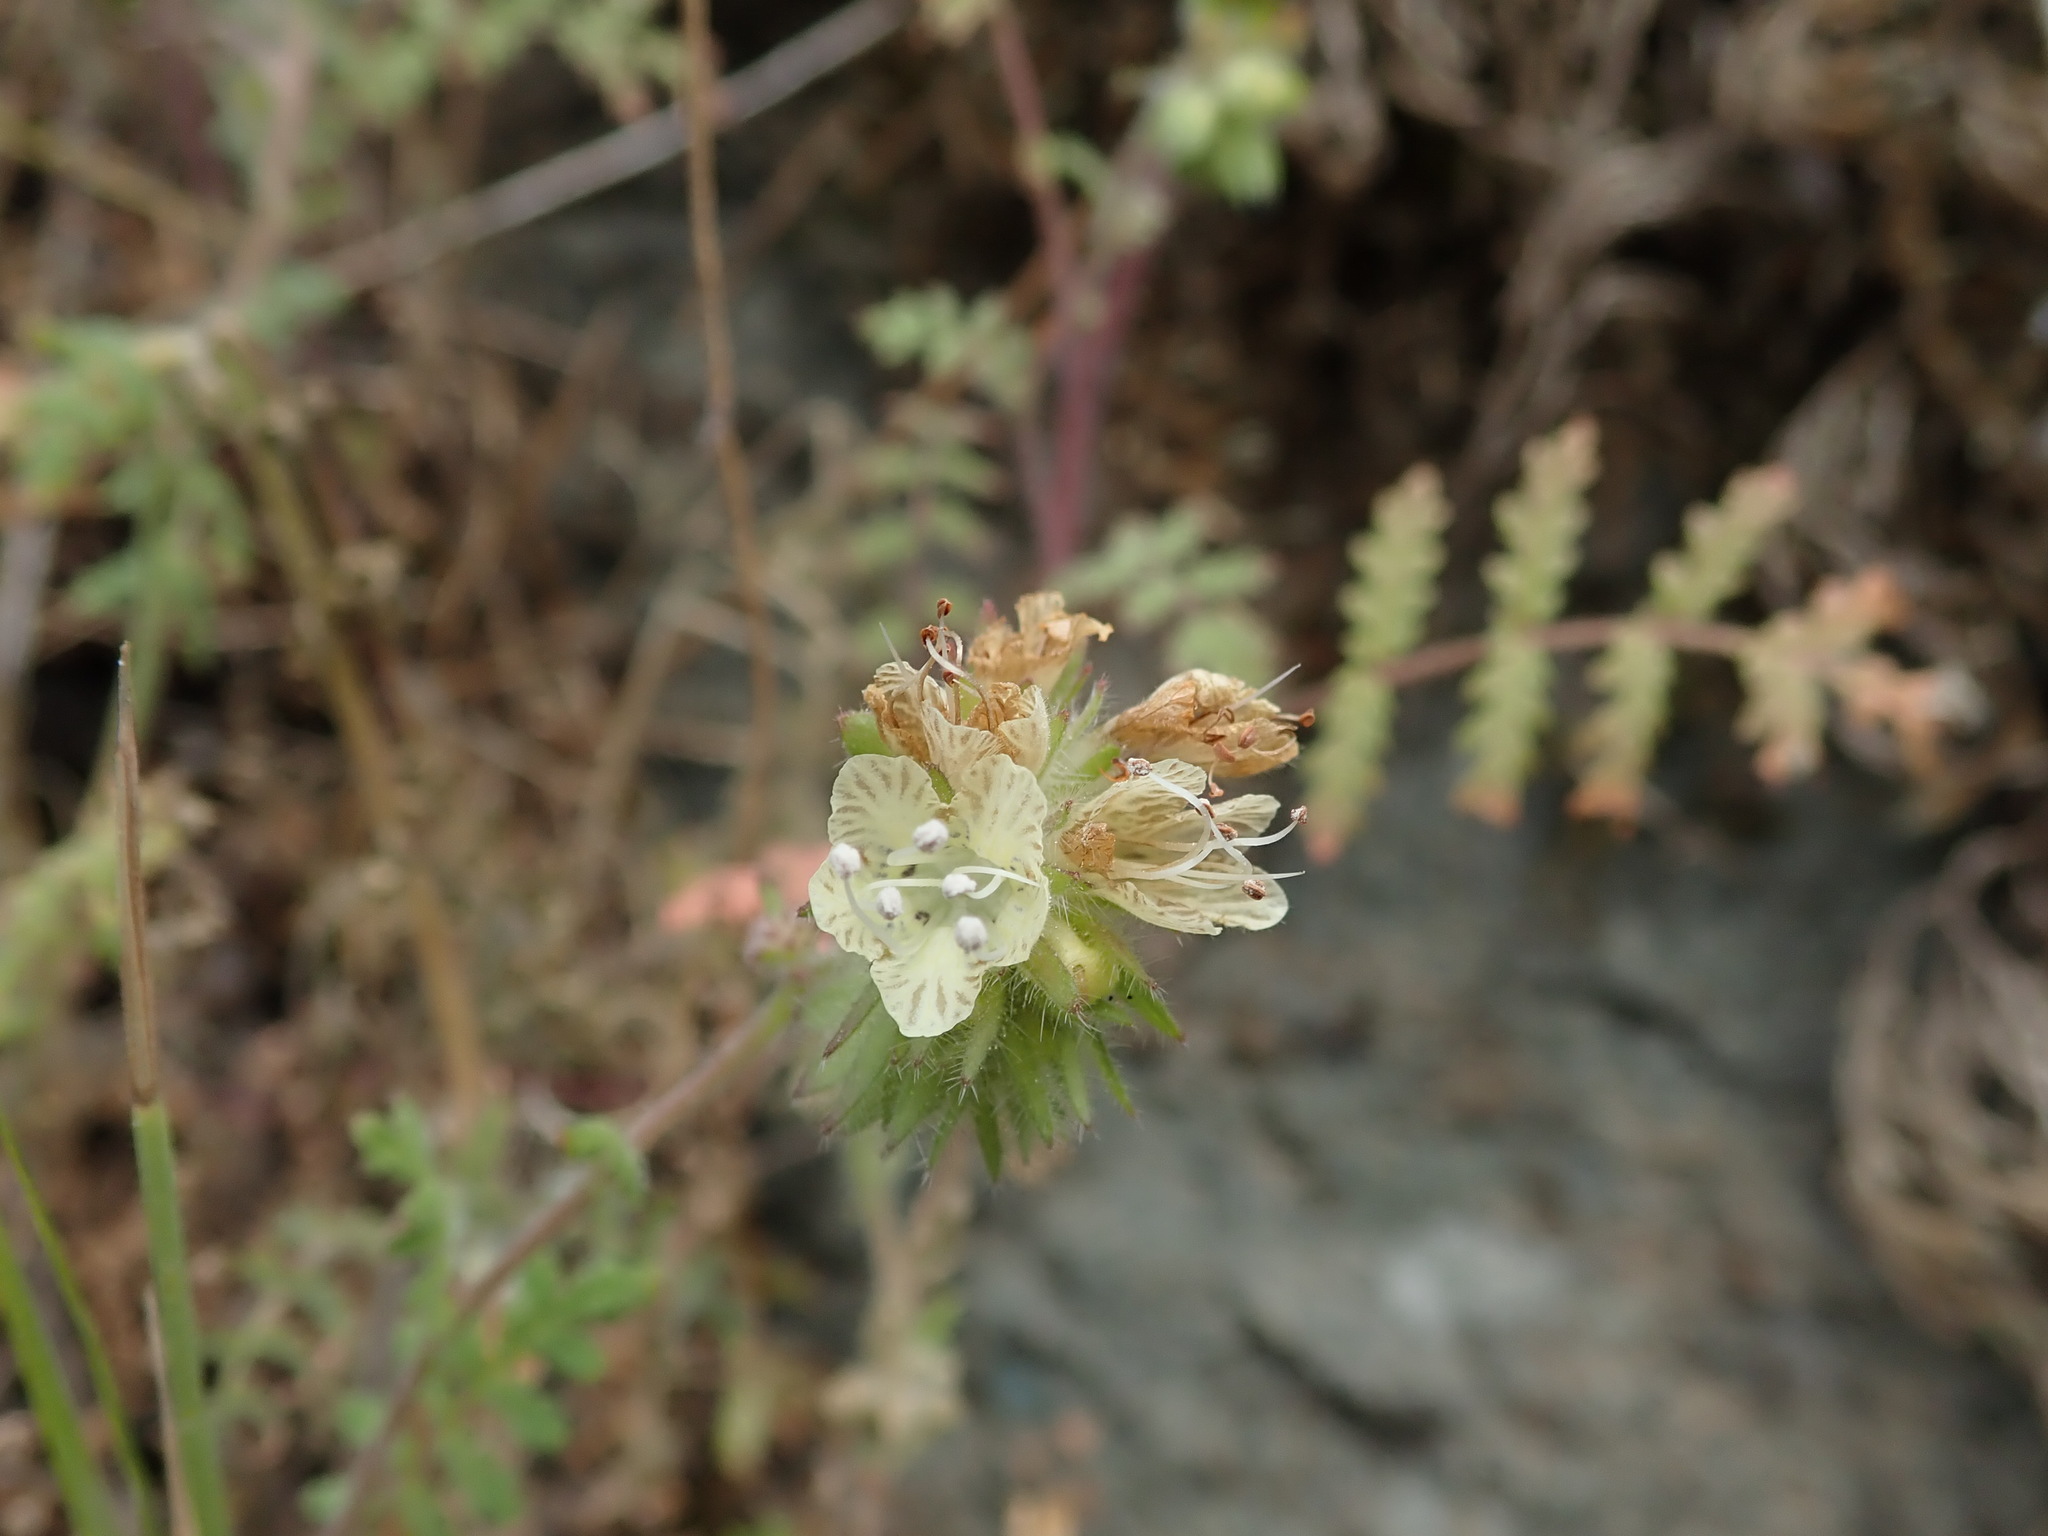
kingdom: Plantae
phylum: Tracheophyta
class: Magnoliopsida
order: Boraginales
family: Hydrophyllaceae
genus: Phacelia
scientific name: Phacelia distans
